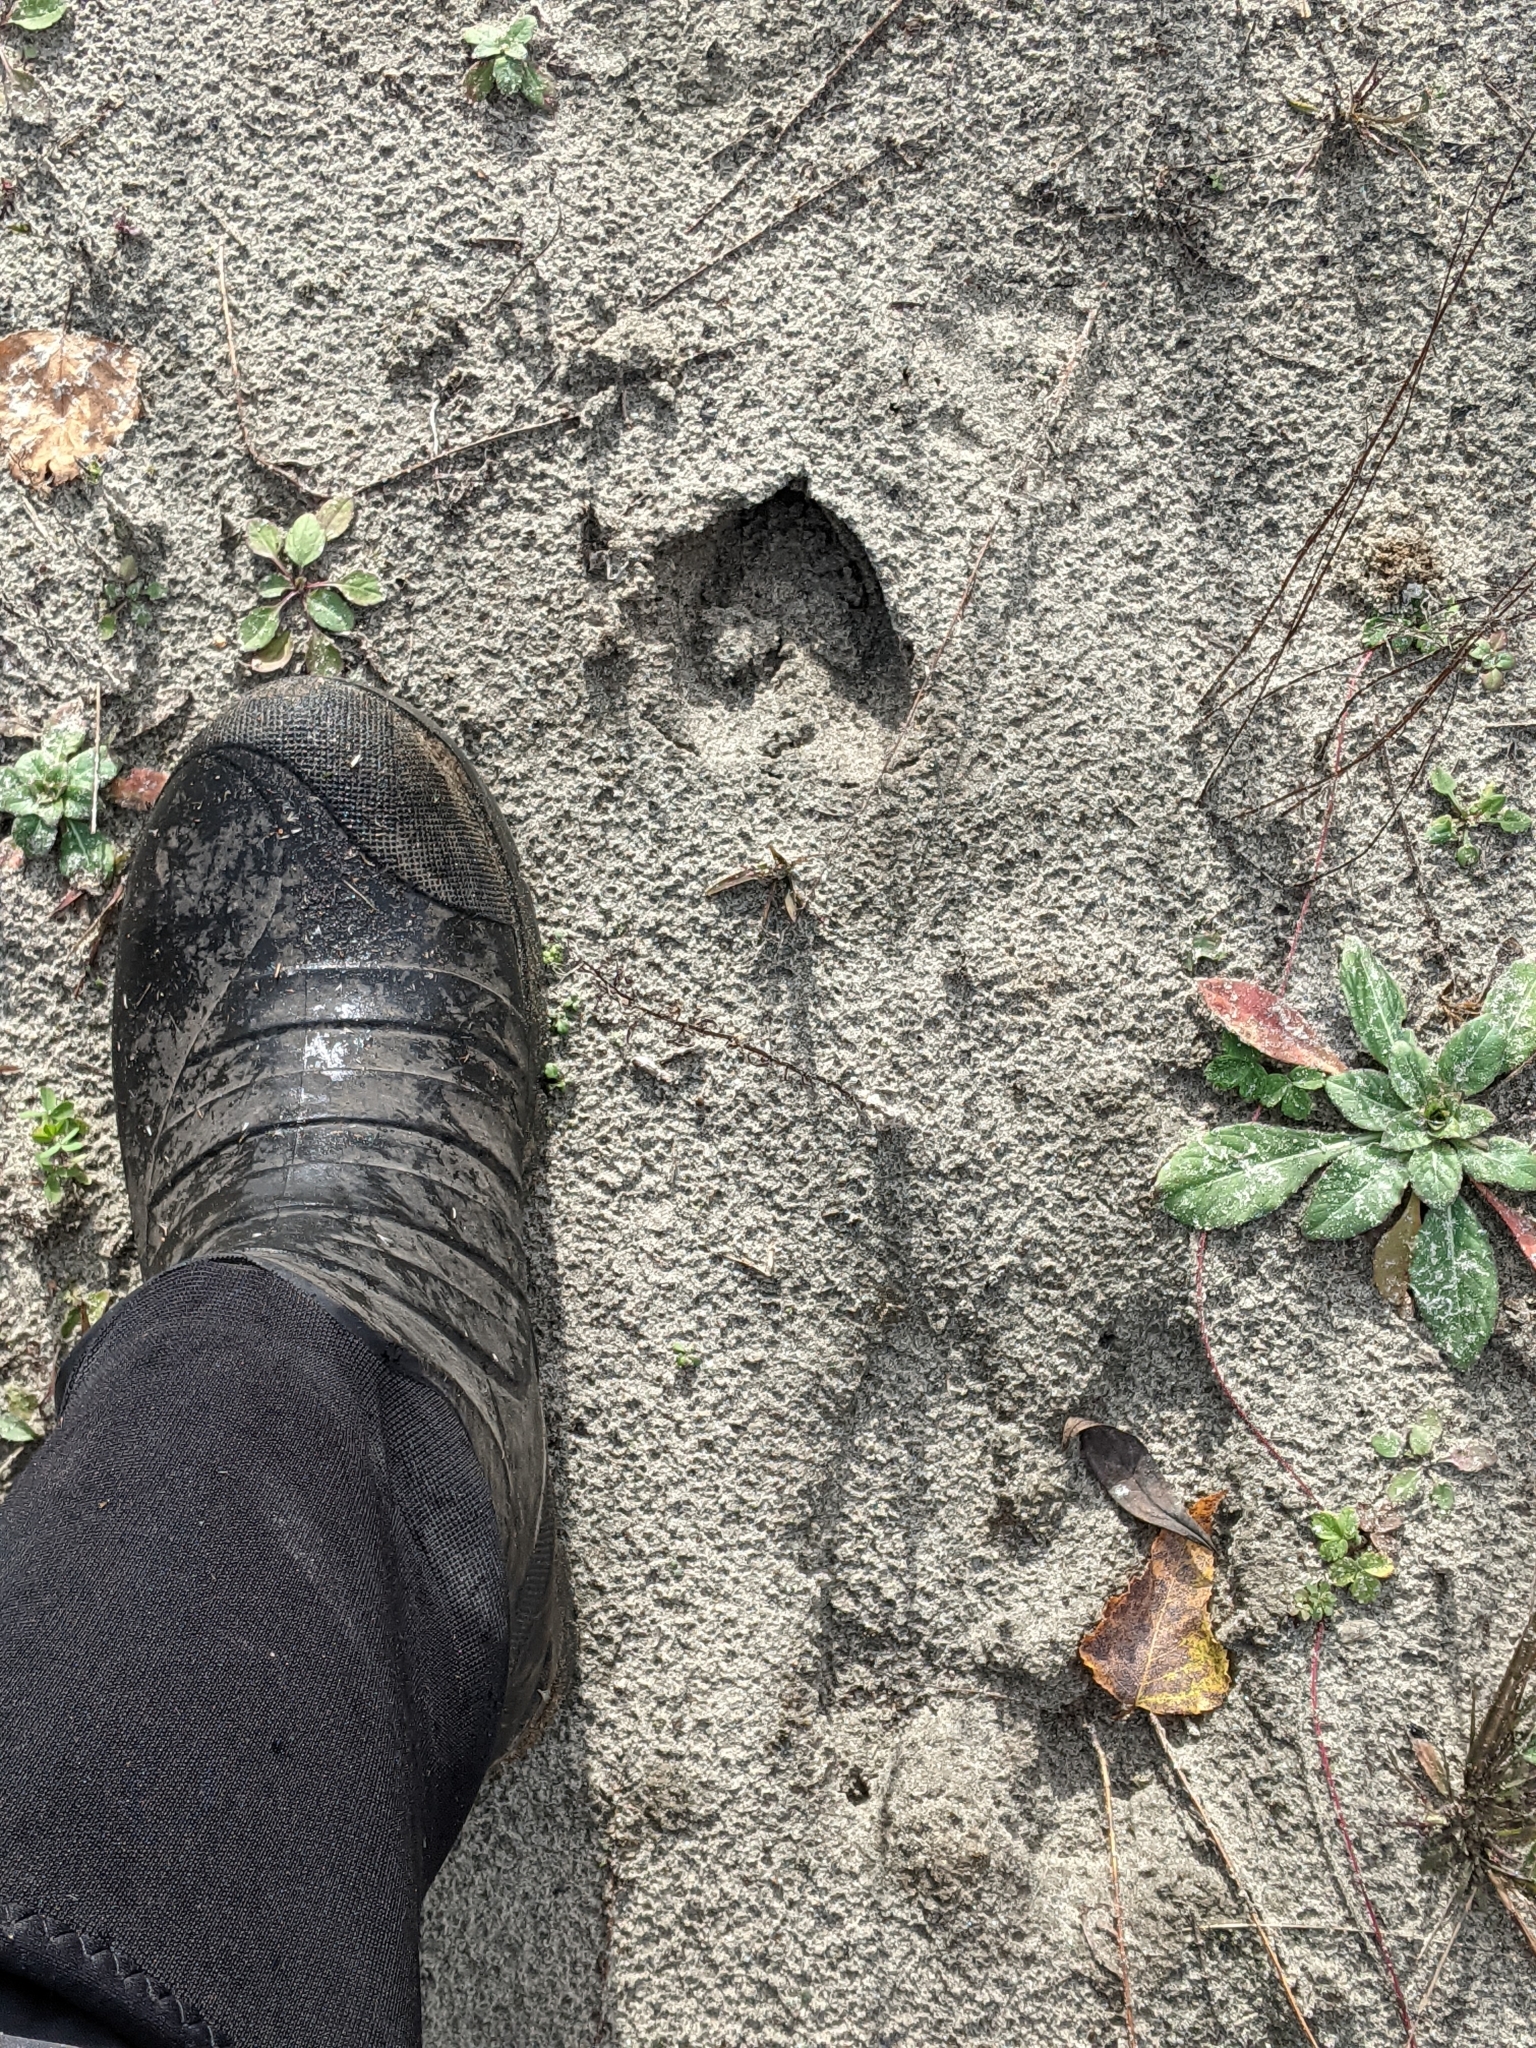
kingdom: Animalia
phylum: Chordata
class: Mammalia
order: Artiodactyla
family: Cervidae
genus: Odocoileus
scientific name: Odocoileus virginianus
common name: White-tailed deer
